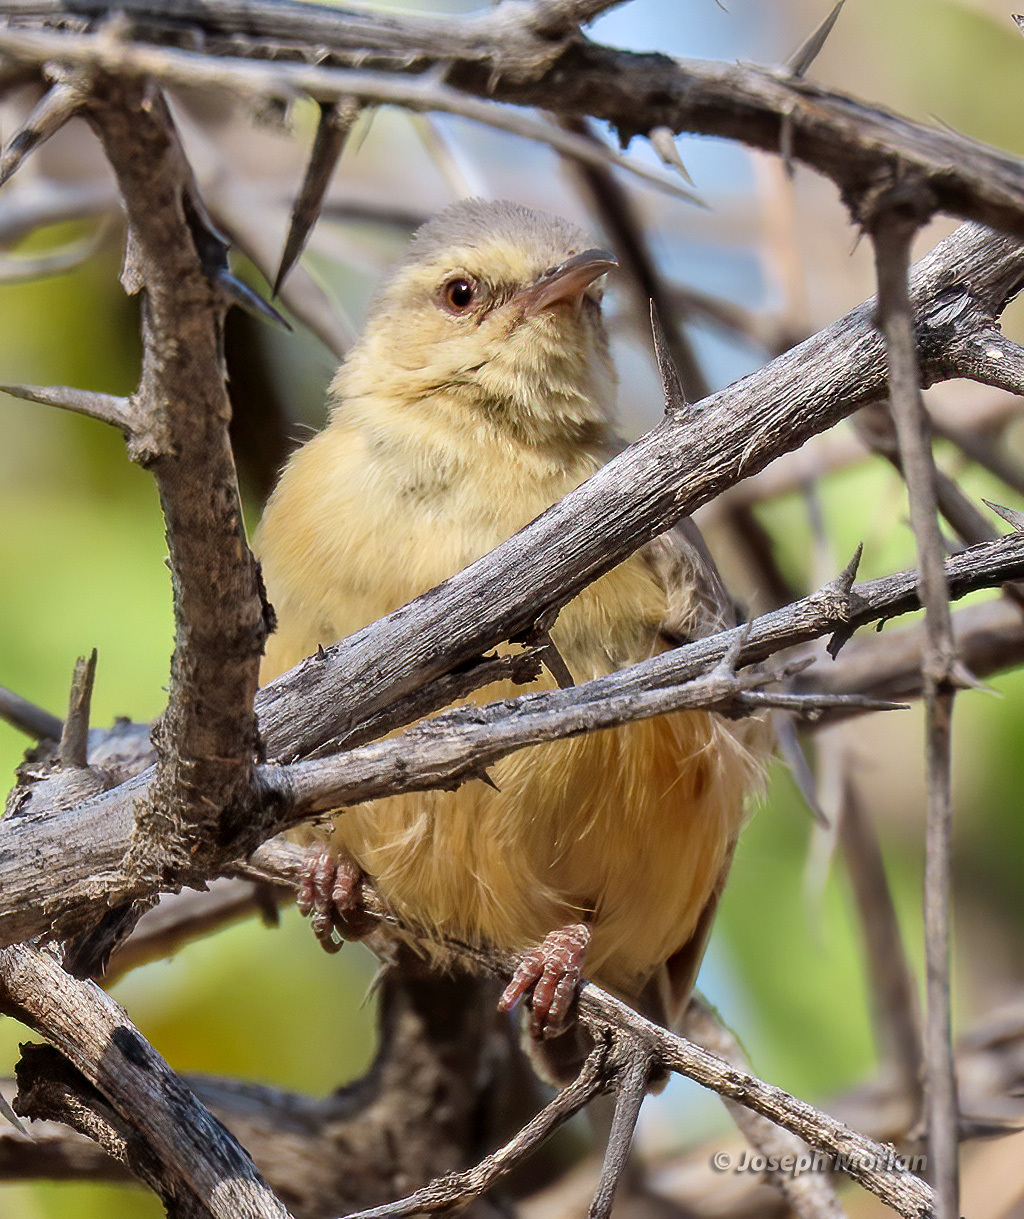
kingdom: Animalia
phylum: Chordata
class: Aves
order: Passeriformes
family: Macrosphenidae
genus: Sylvietta
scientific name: Sylvietta rufescens
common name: Long-billed crombec
